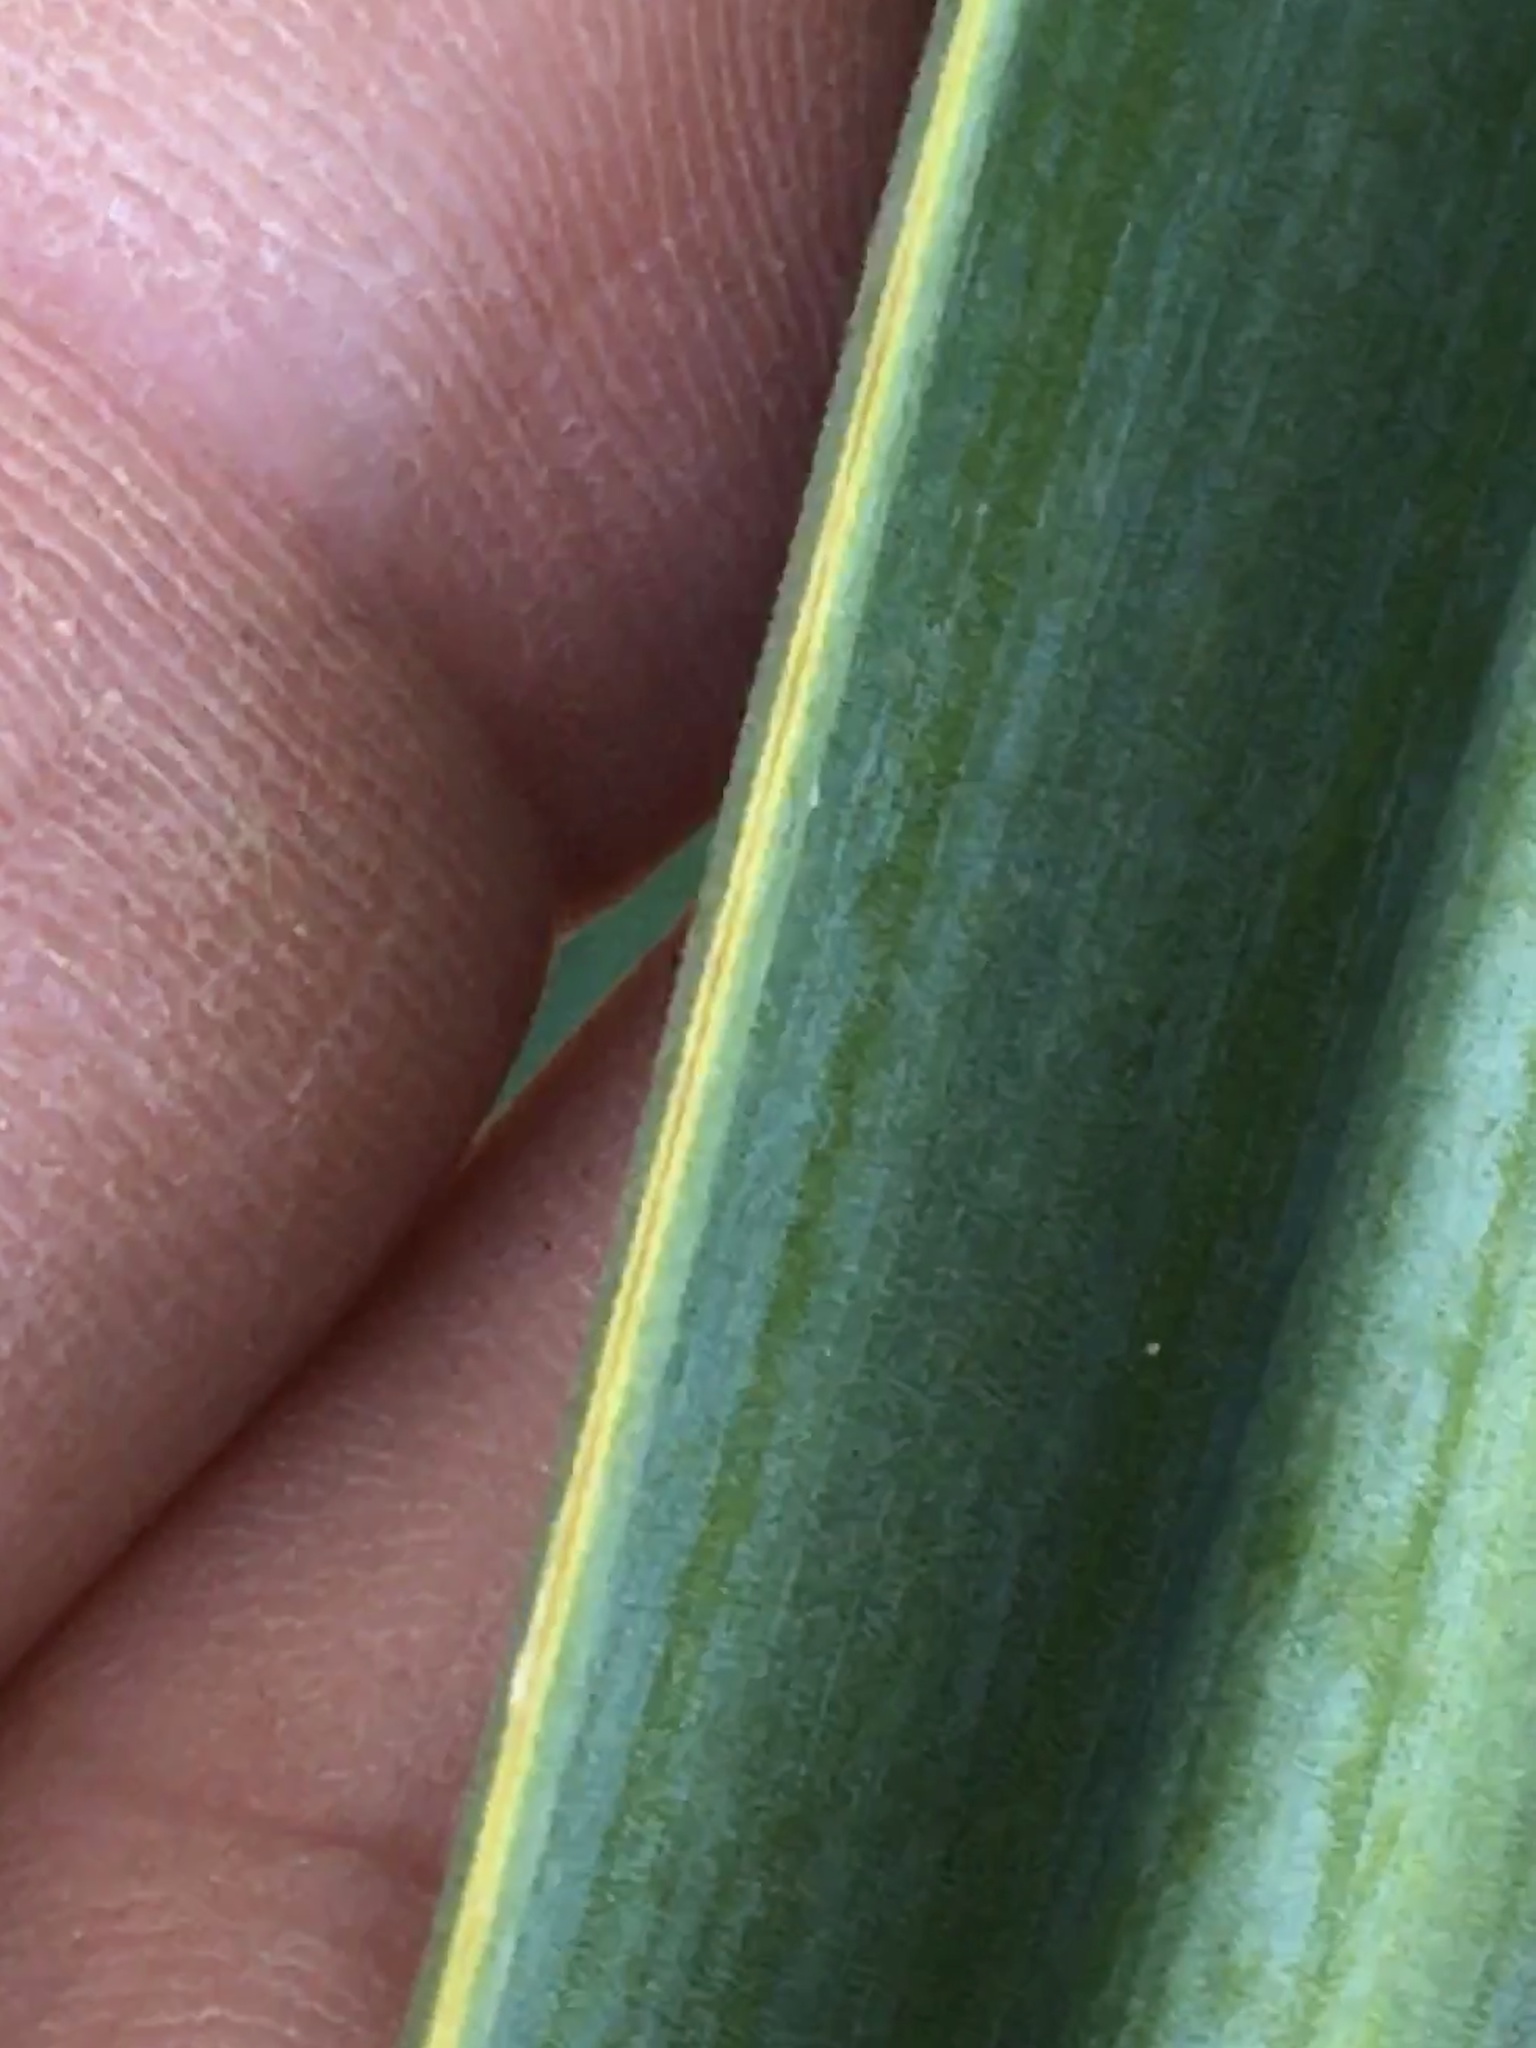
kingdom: Plantae
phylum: Tracheophyta
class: Liliopsida
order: Asparagales
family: Asparagaceae
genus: Yucca
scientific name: Yucca gloriosa
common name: Spanish-dagger
